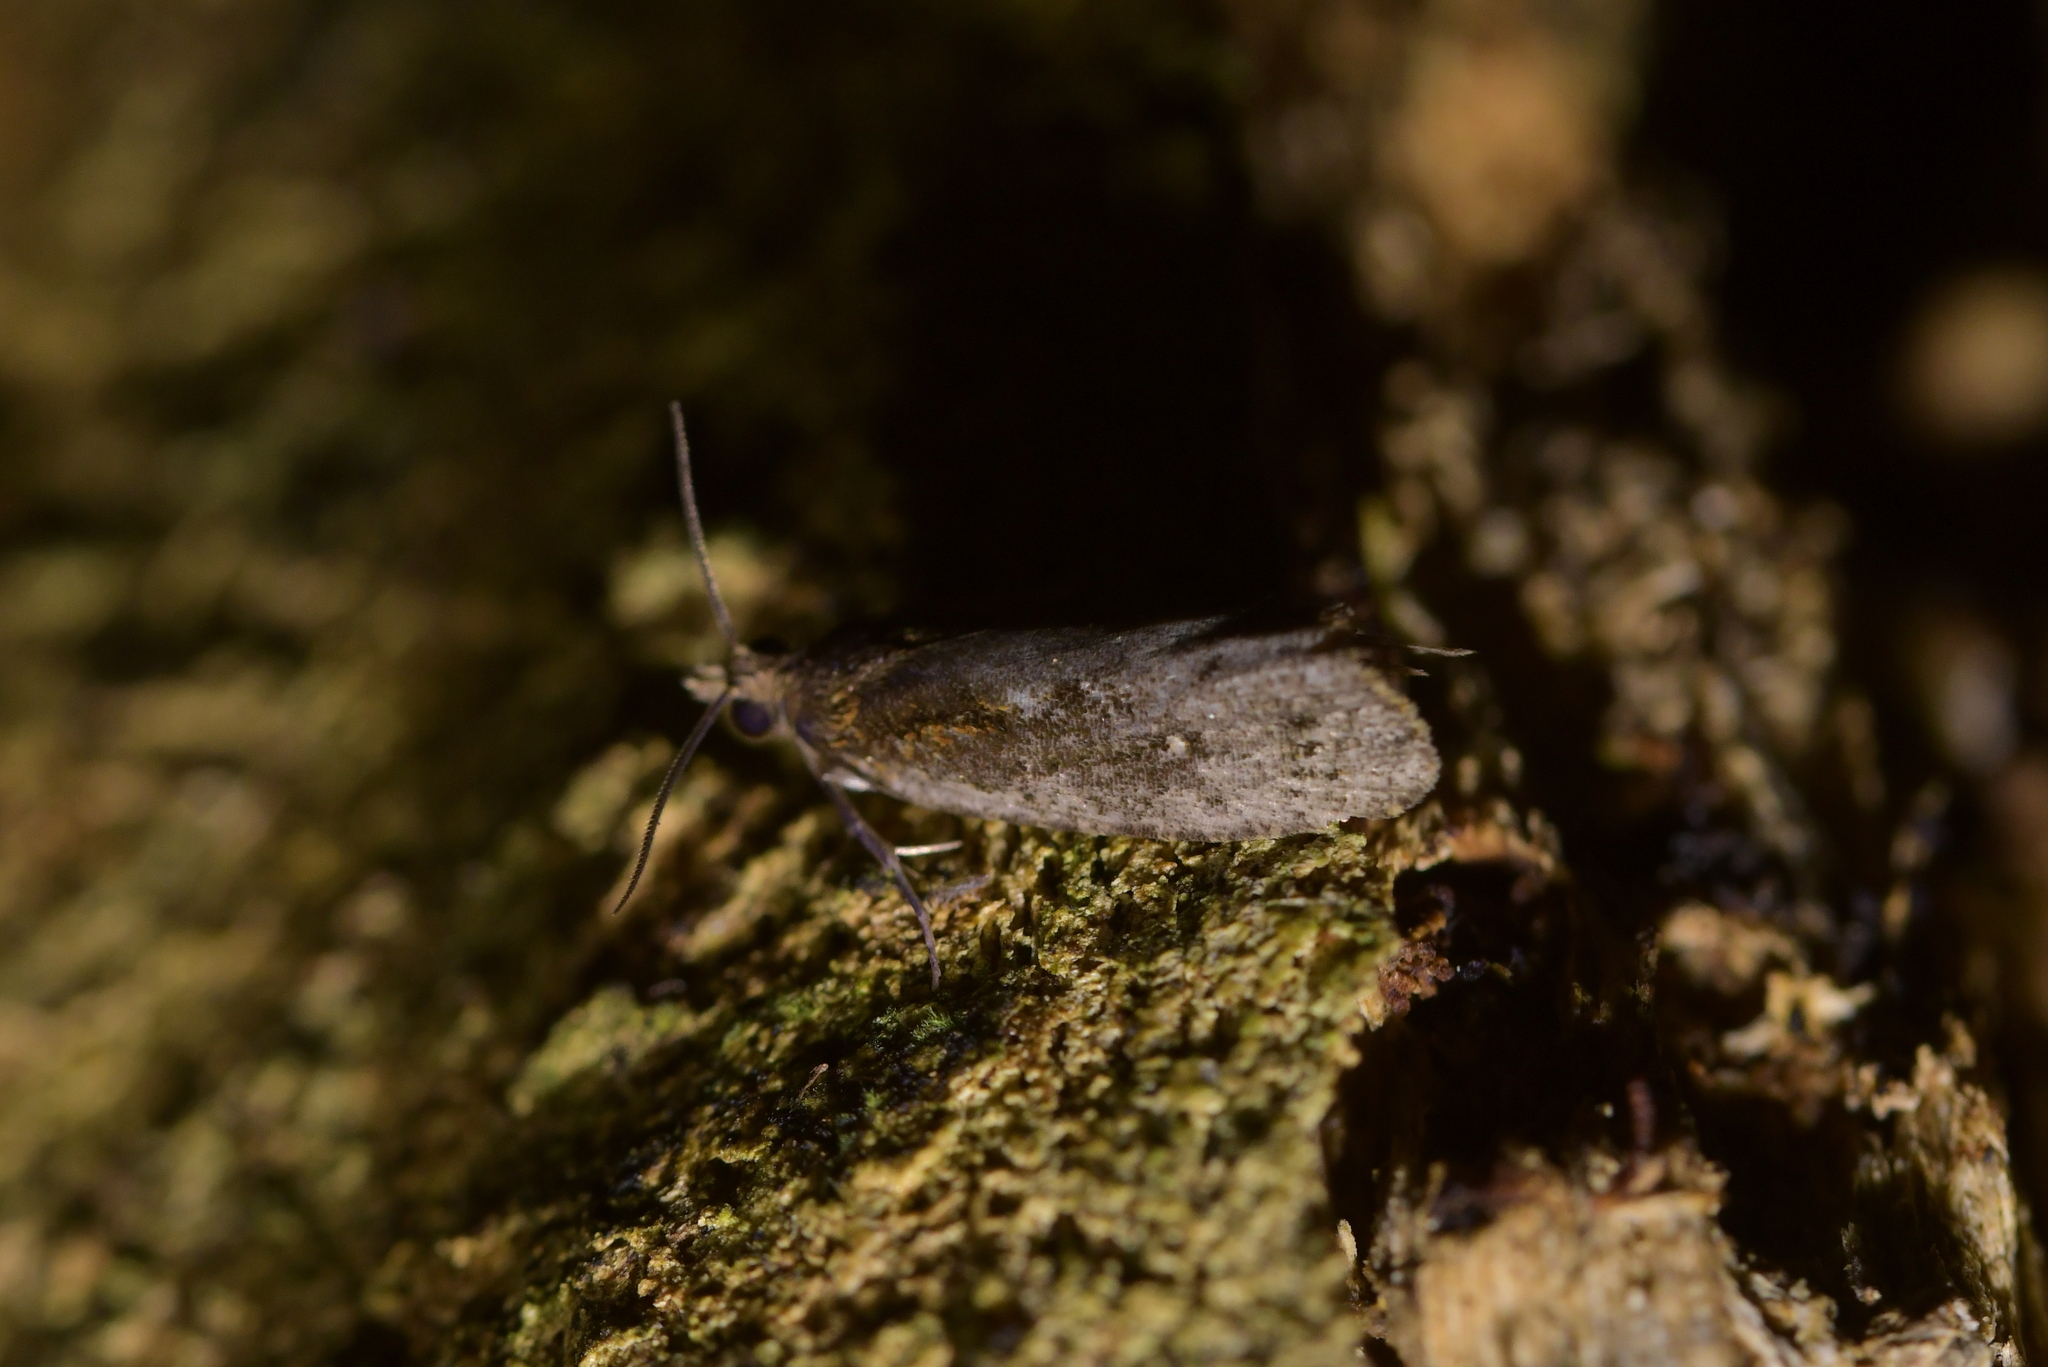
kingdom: Animalia
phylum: Arthropoda
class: Insecta
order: Lepidoptera
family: Tortricidae
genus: Cryptaspasma
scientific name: Cryptaspasma querula
